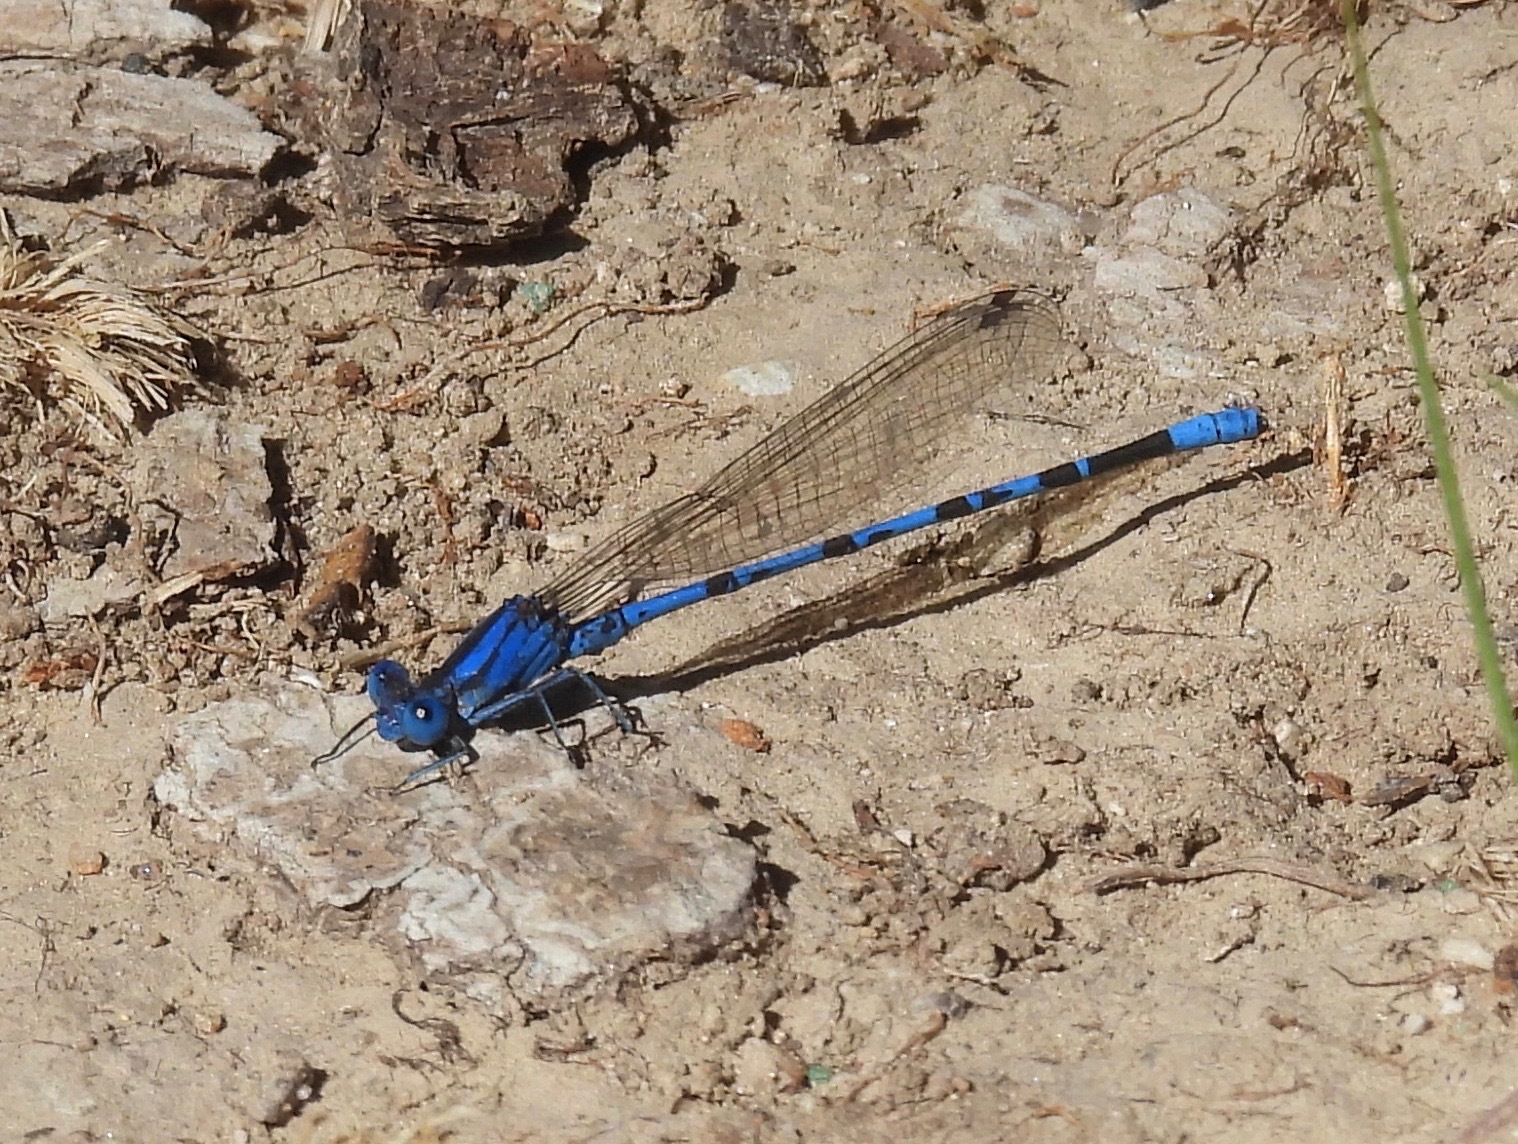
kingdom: Animalia
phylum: Arthropoda
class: Insecta
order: Odonata
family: Coenagrionidae
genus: Argia
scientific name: Argia funebris
